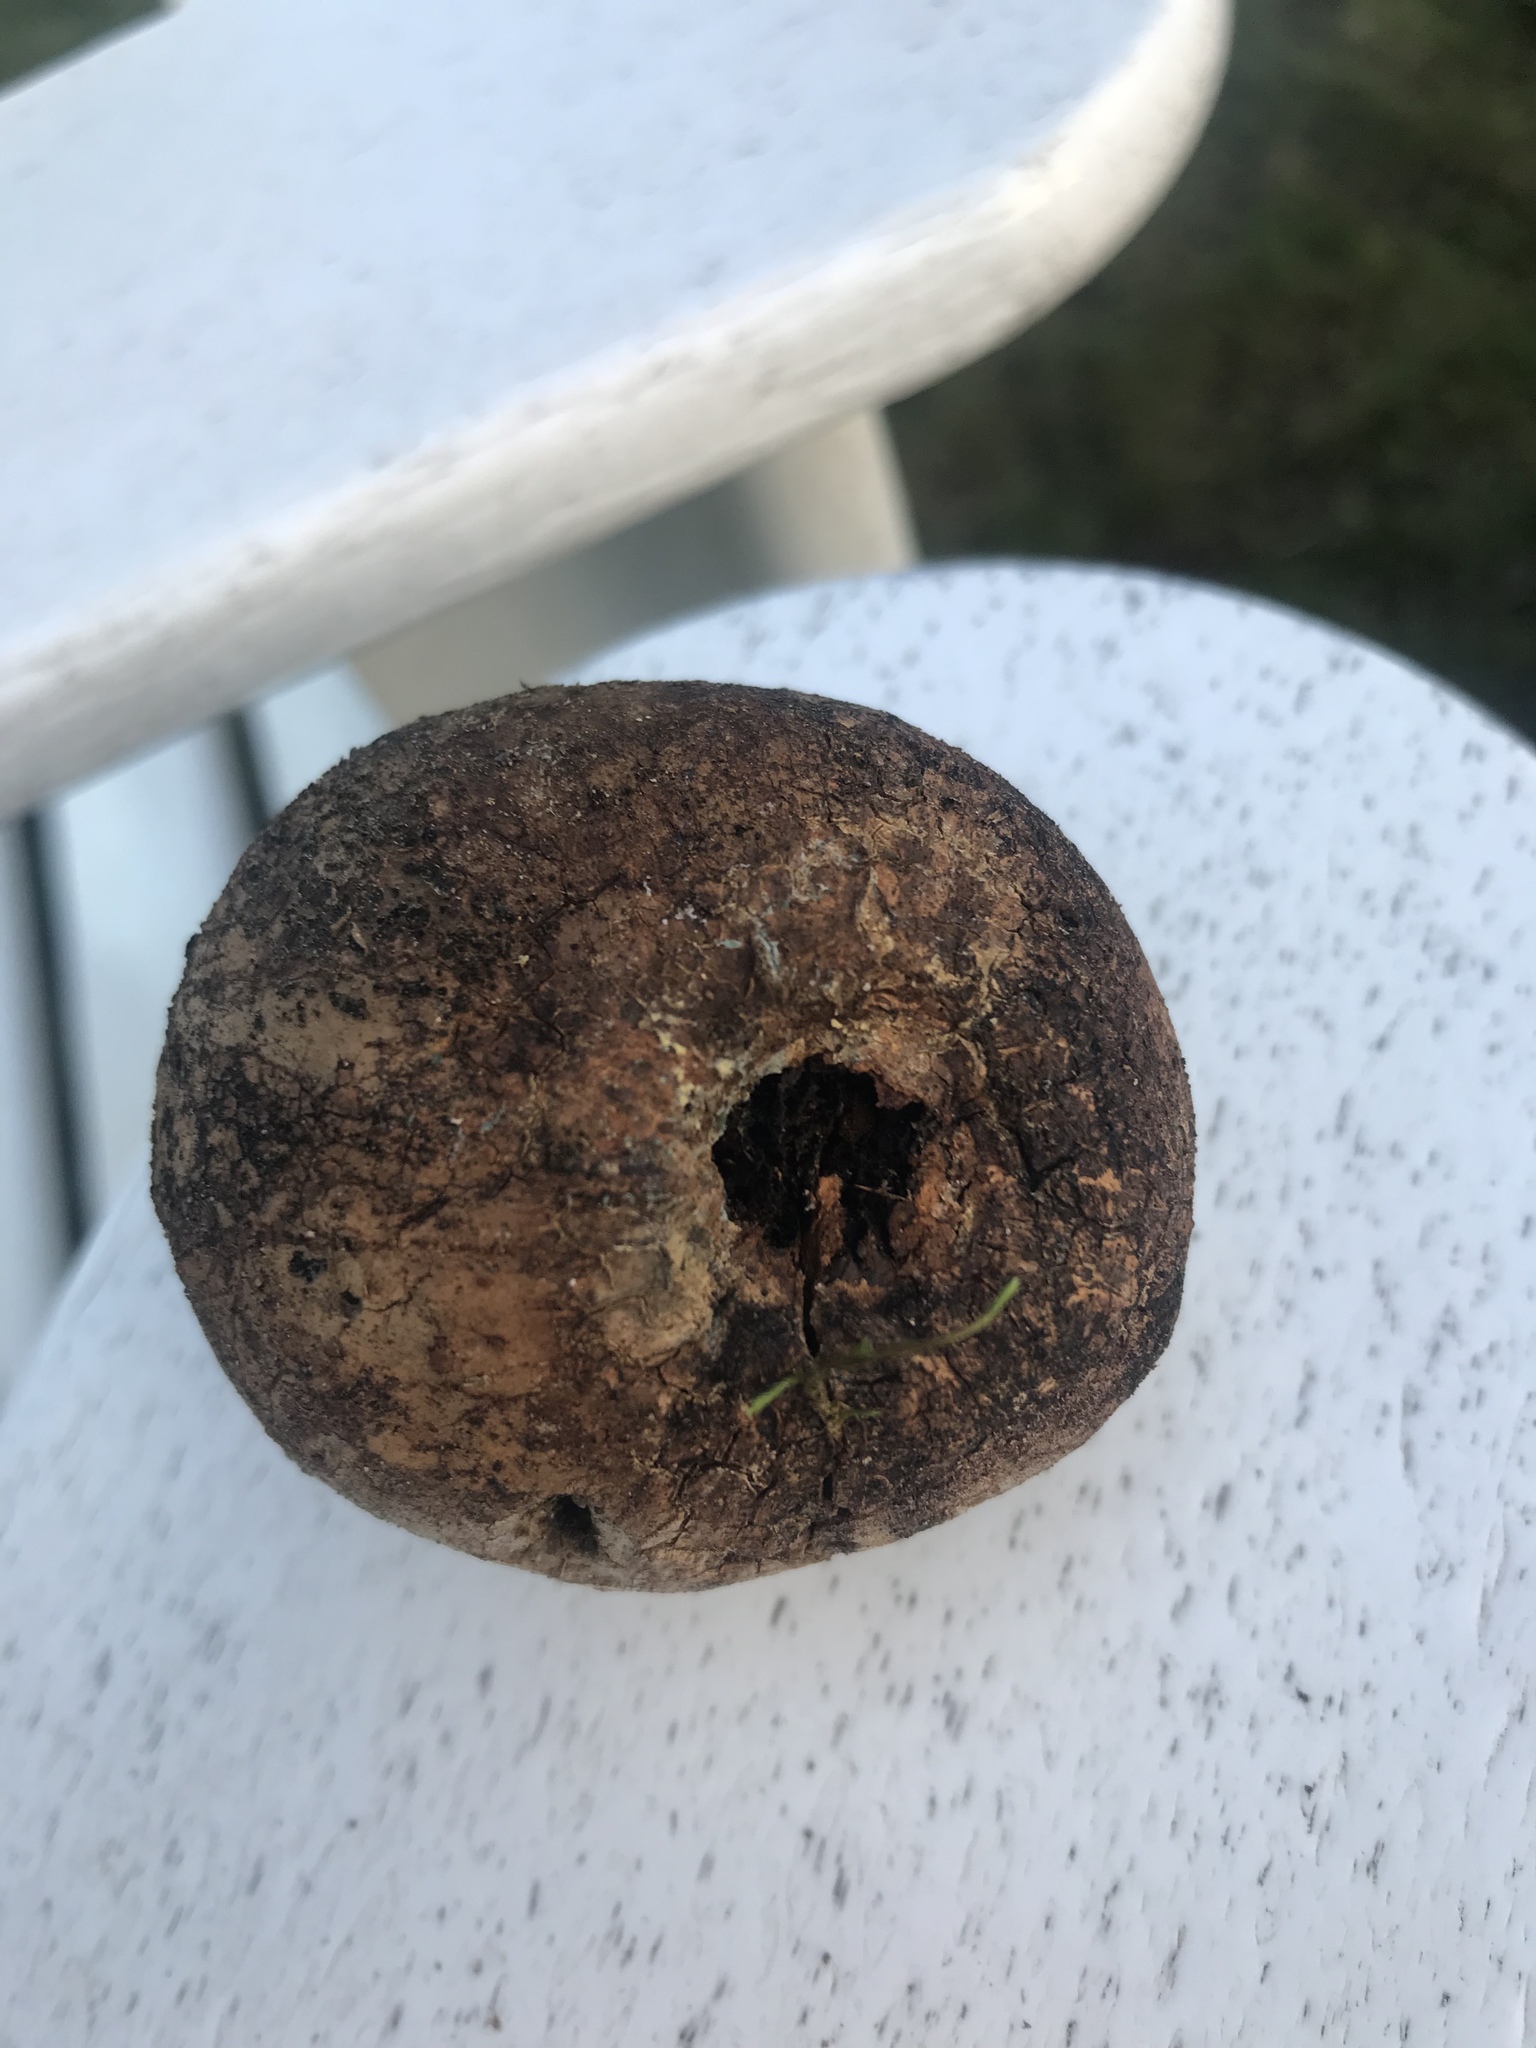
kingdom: Animalia
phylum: Arthropoda
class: Insecta
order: Hymenoptera
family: Cynipidae
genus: Andricus
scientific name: Andricus quercuscalifornicus
